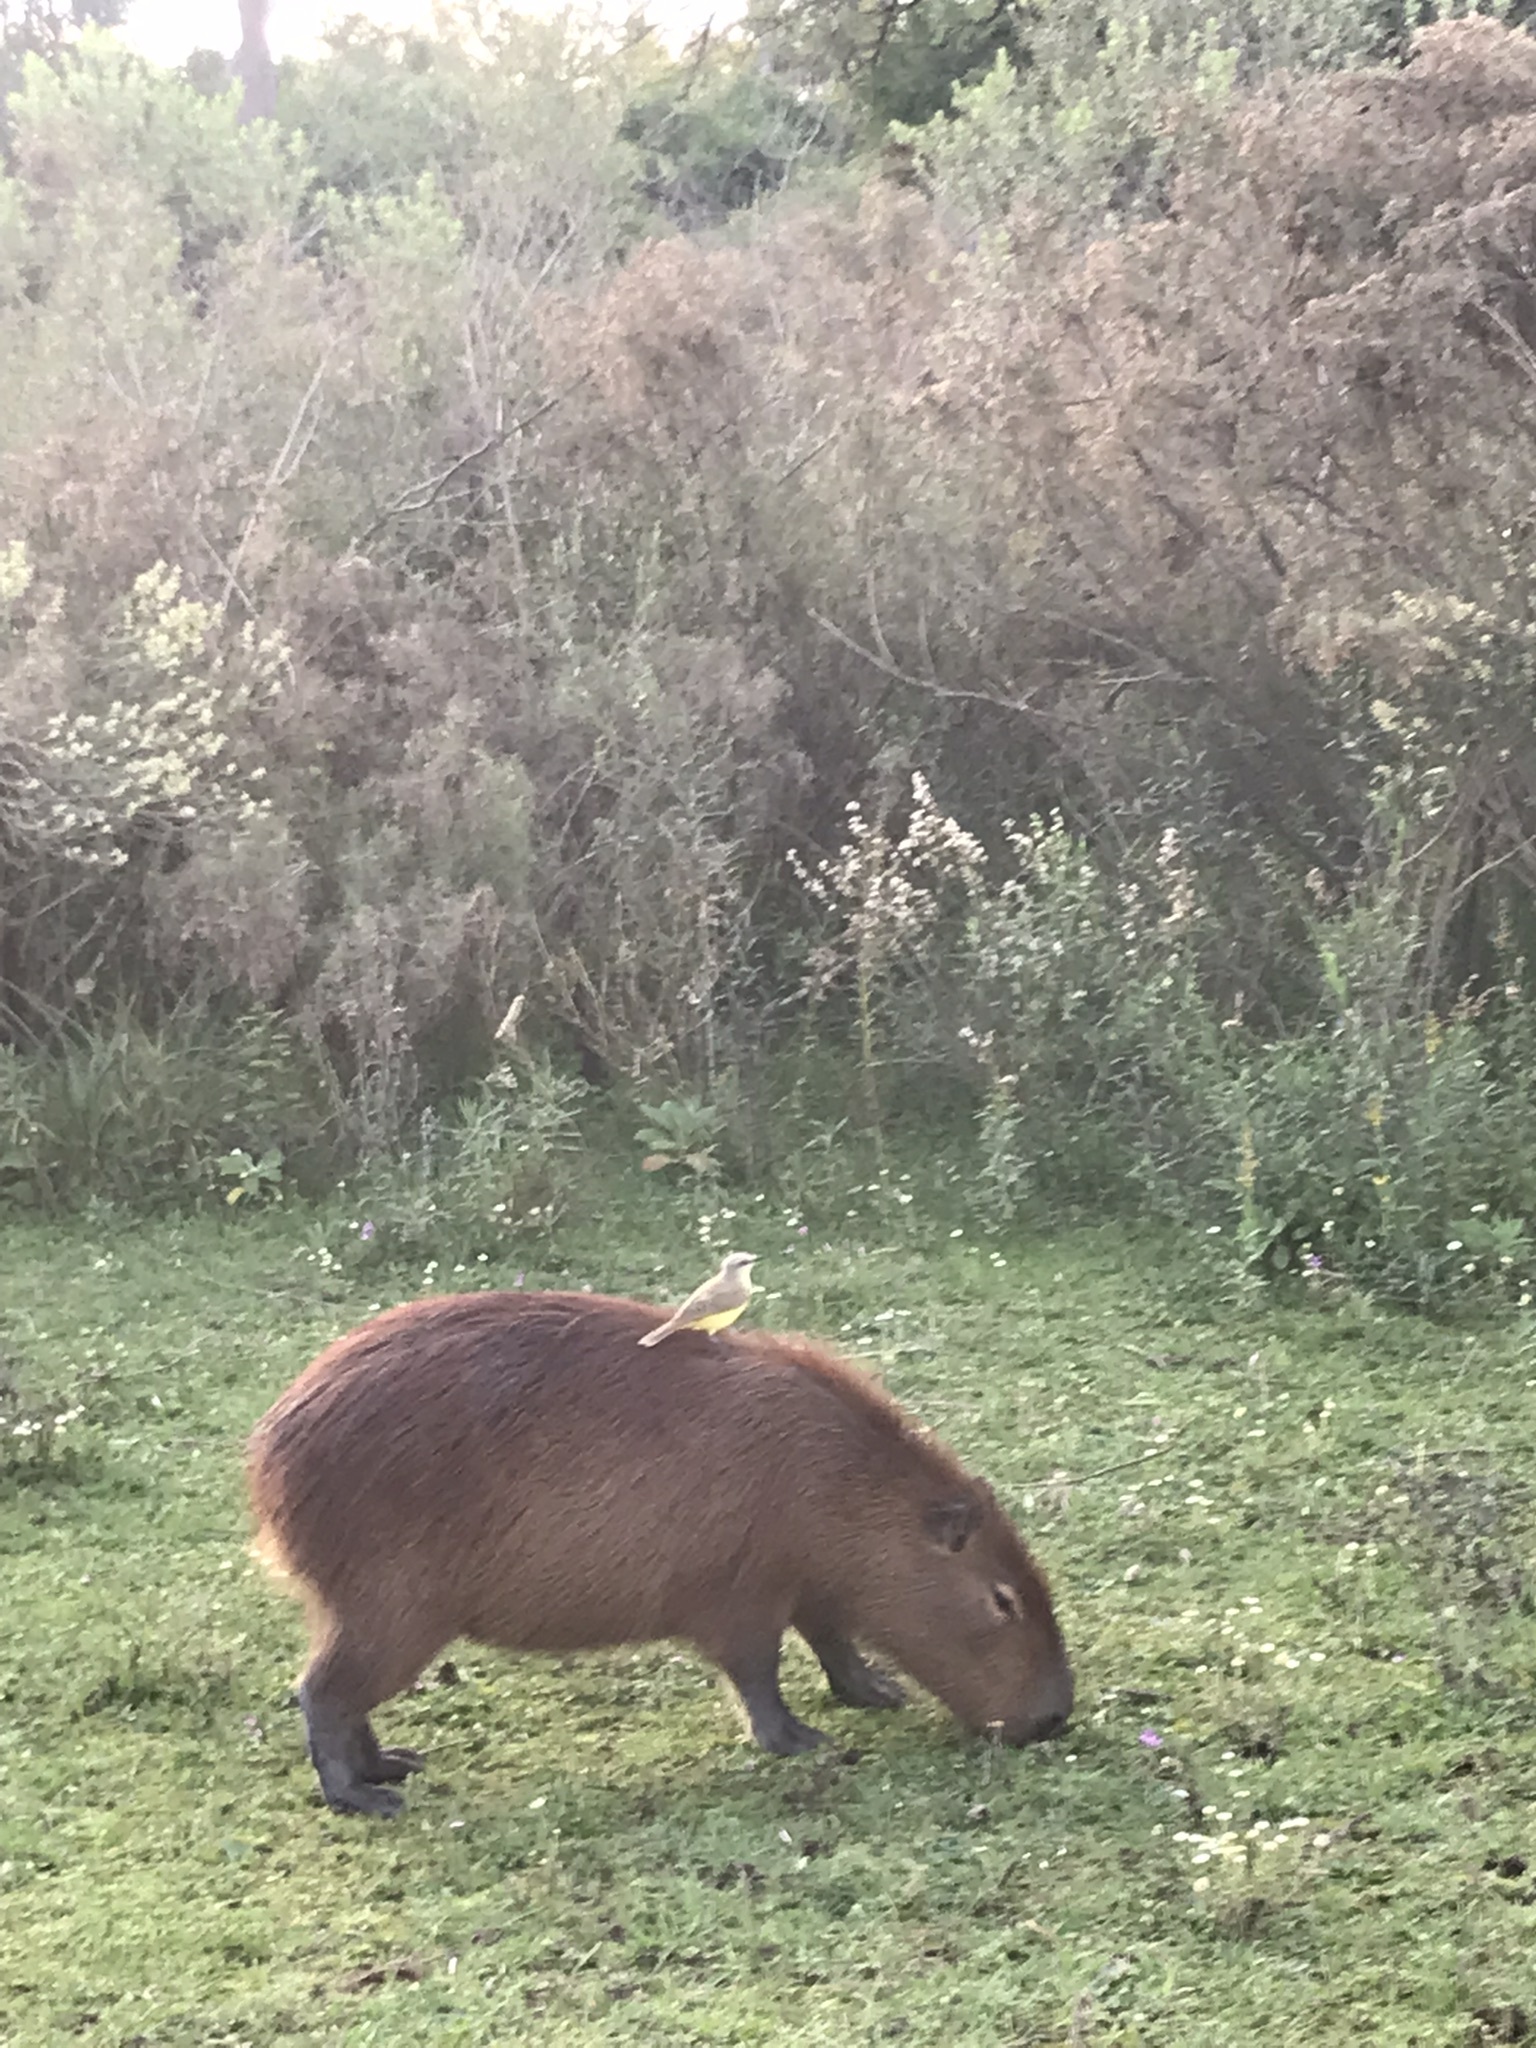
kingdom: Animalia
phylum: Chordata
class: Mammalia
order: Rodentia
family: Caviidae
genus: Hydrochoerus
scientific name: Hydrochoerus hydrochaeris
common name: Capybara
